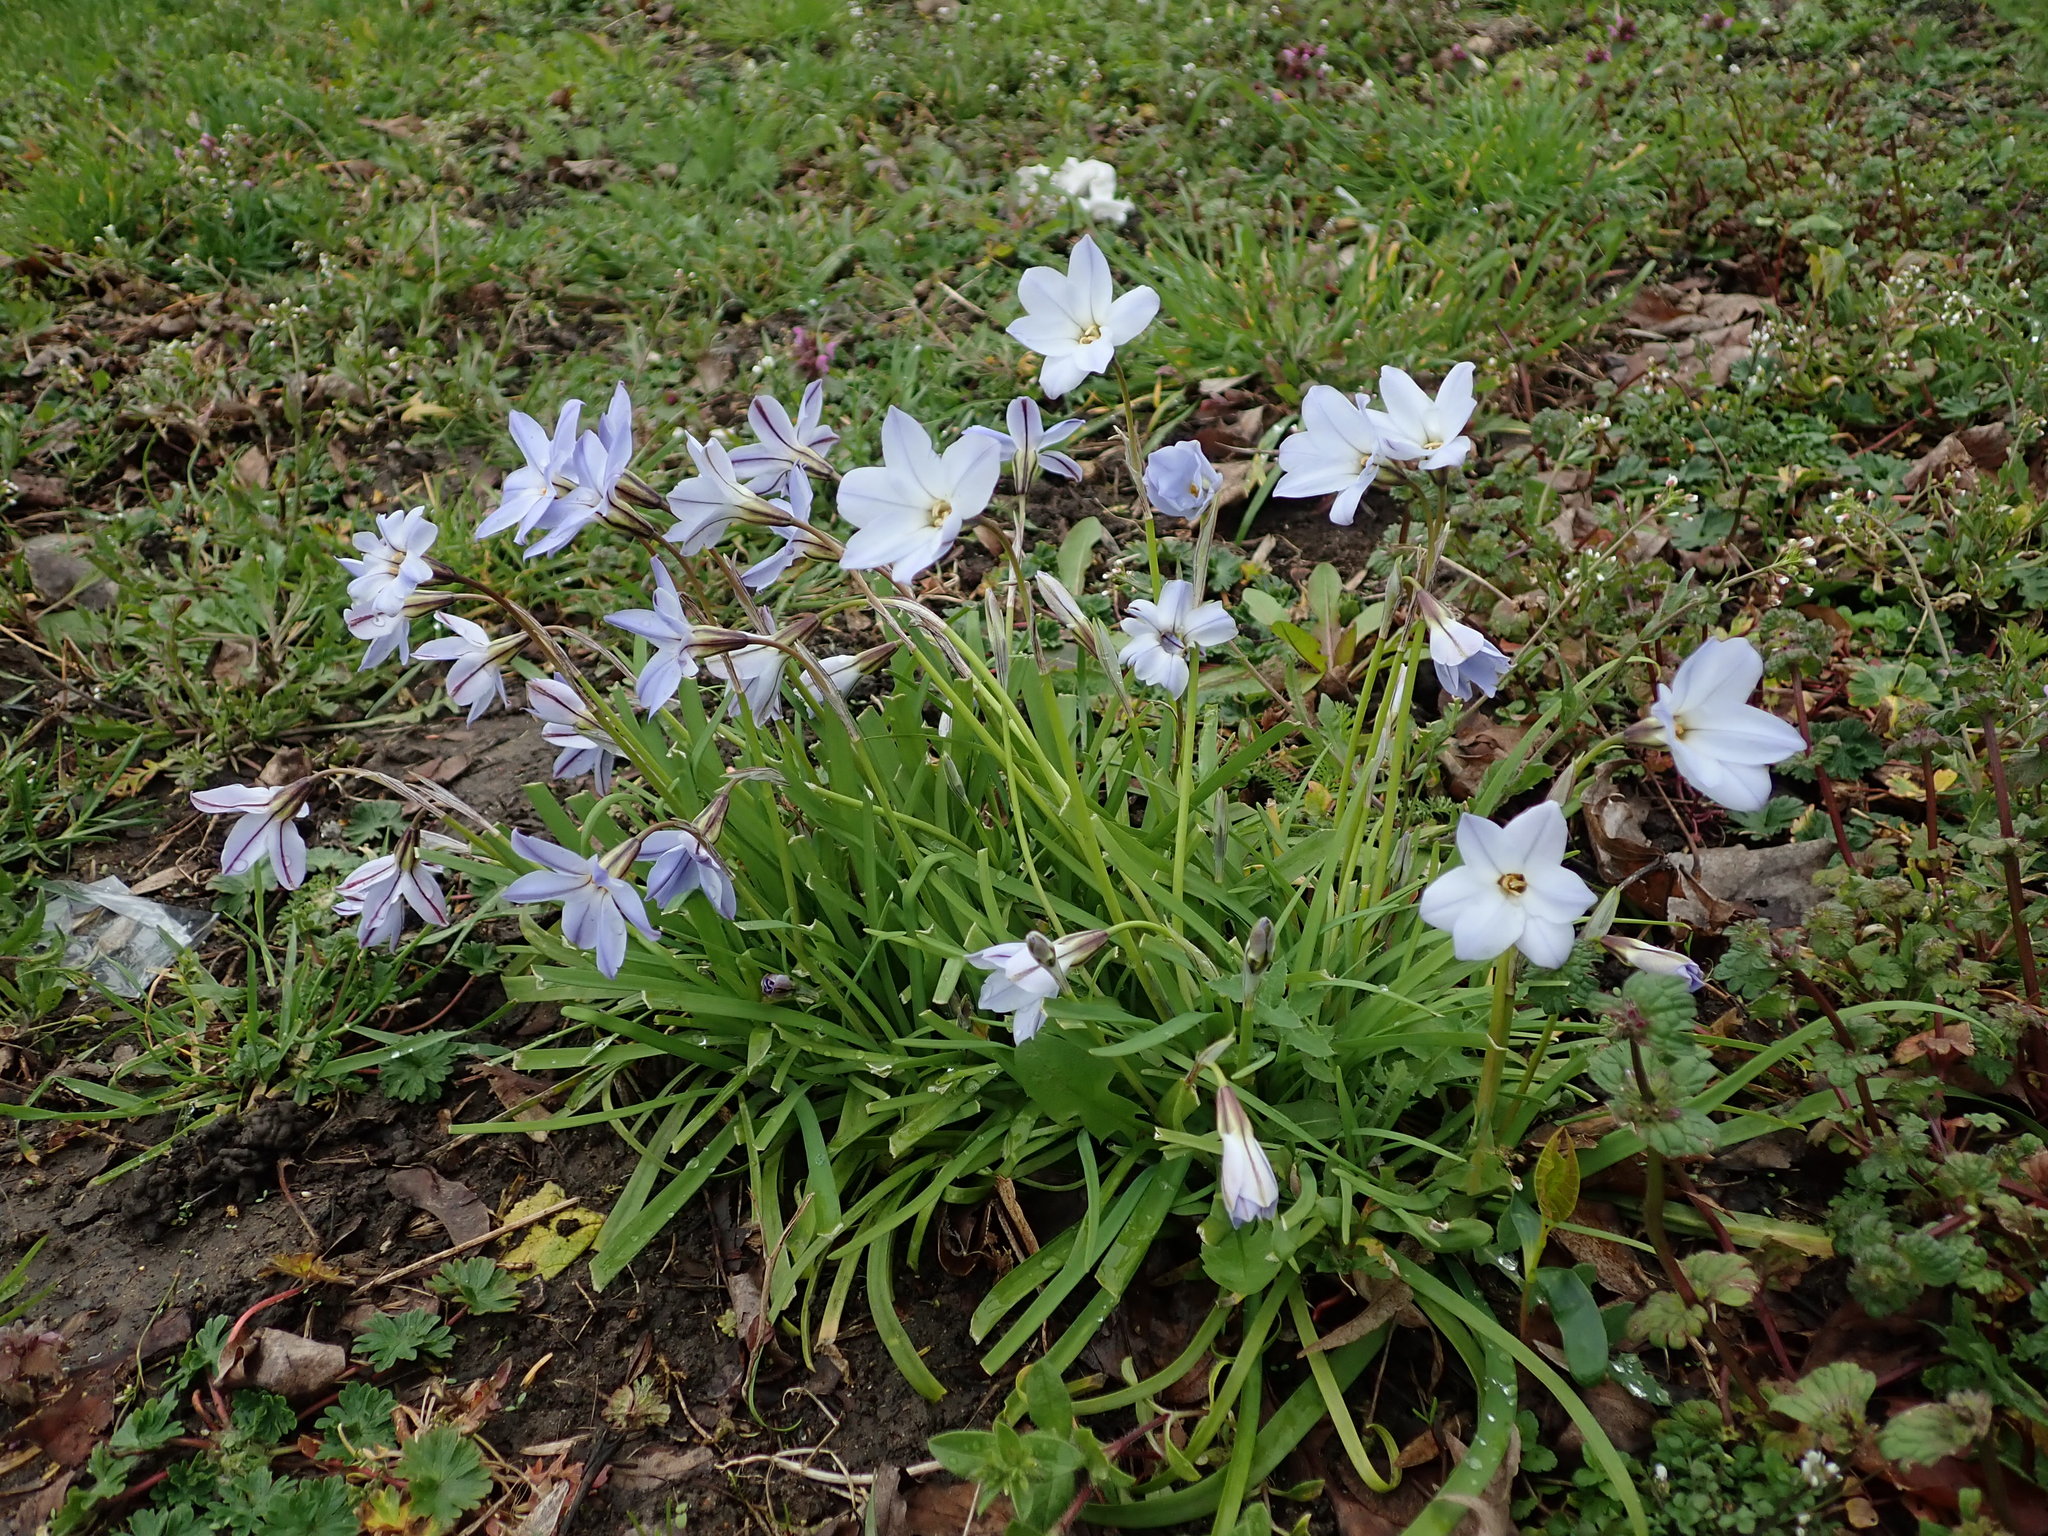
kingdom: Plantae
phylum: Tracheophyta
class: Liliopsida
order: Asparagales
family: Amaryllidaceae
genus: Ipheion
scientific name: Ipheion uniflorum
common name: Spring starflower
